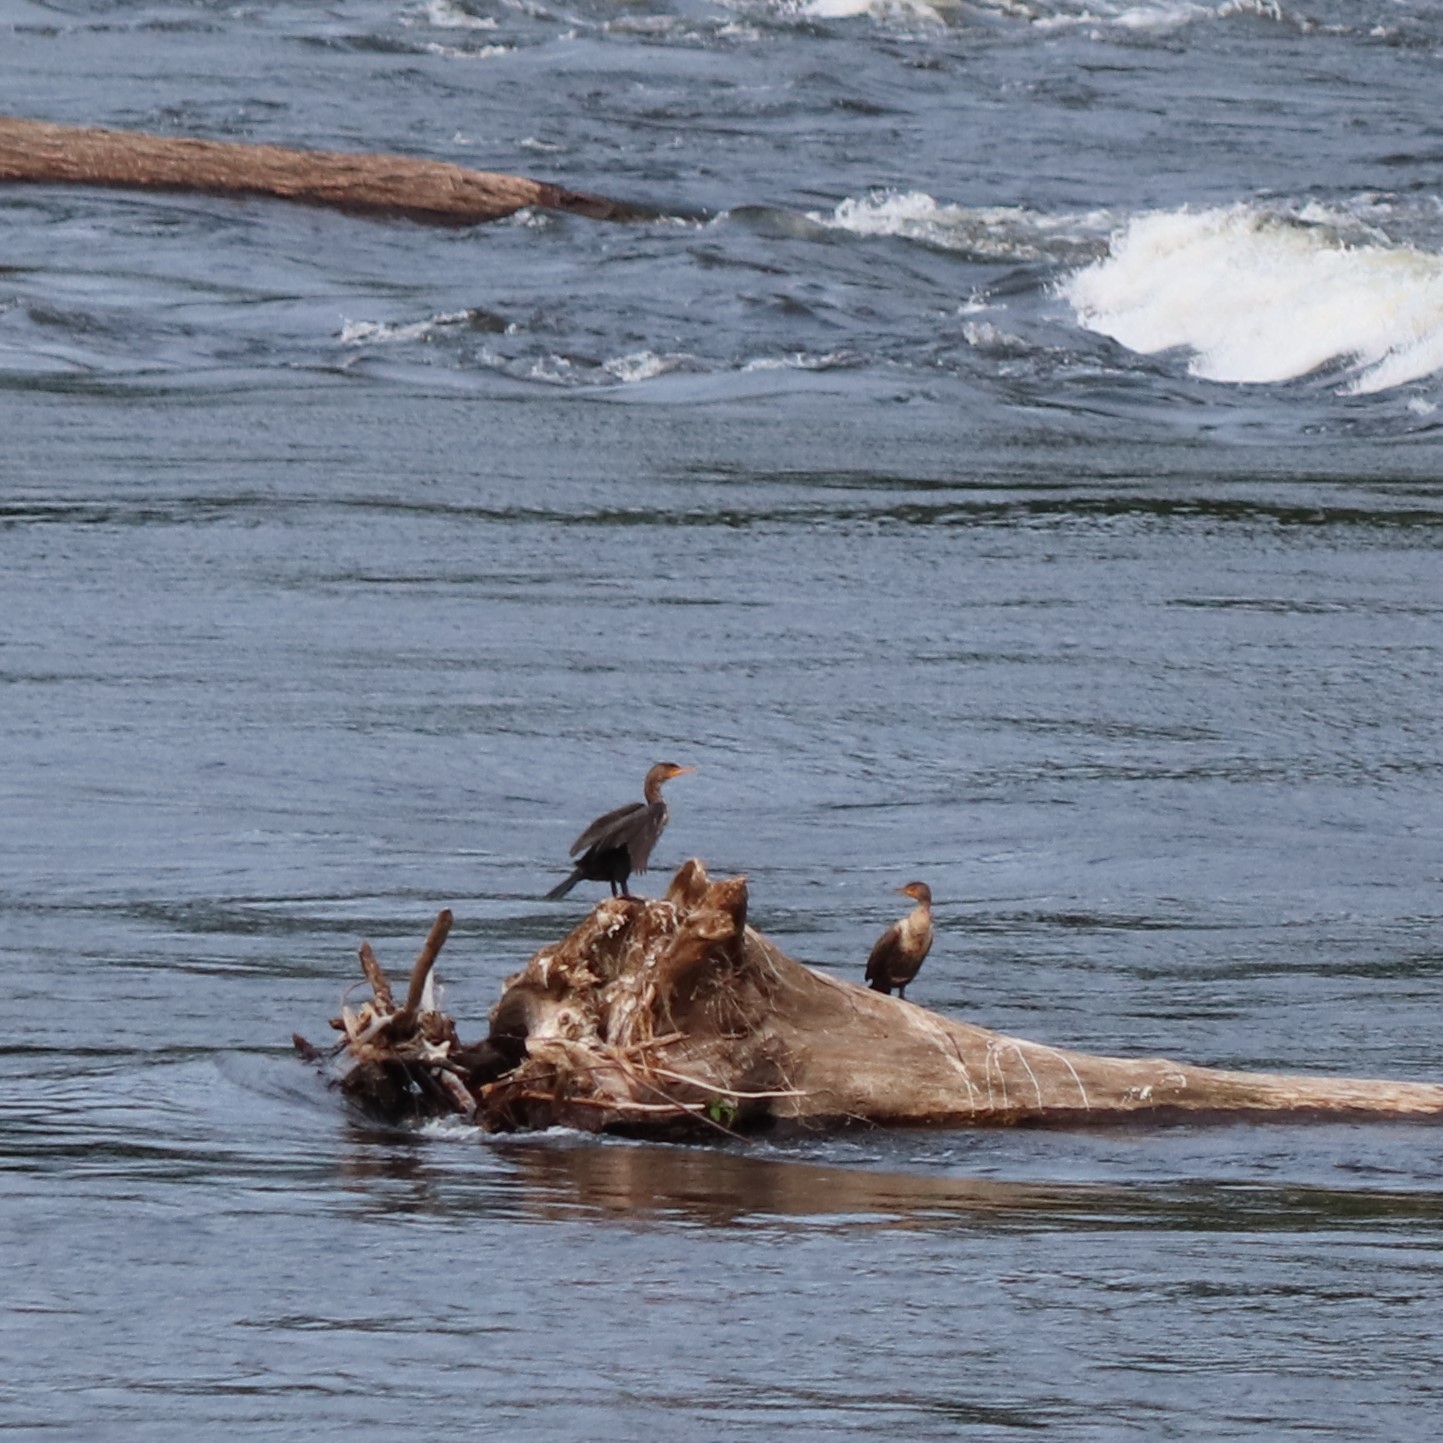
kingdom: Animalia
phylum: Chordata
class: Aves
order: Suliformes
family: Phalacrocoracidae
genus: Phalacrocorax
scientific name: Phalacrocorax auritus
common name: Double-crested cormorant
